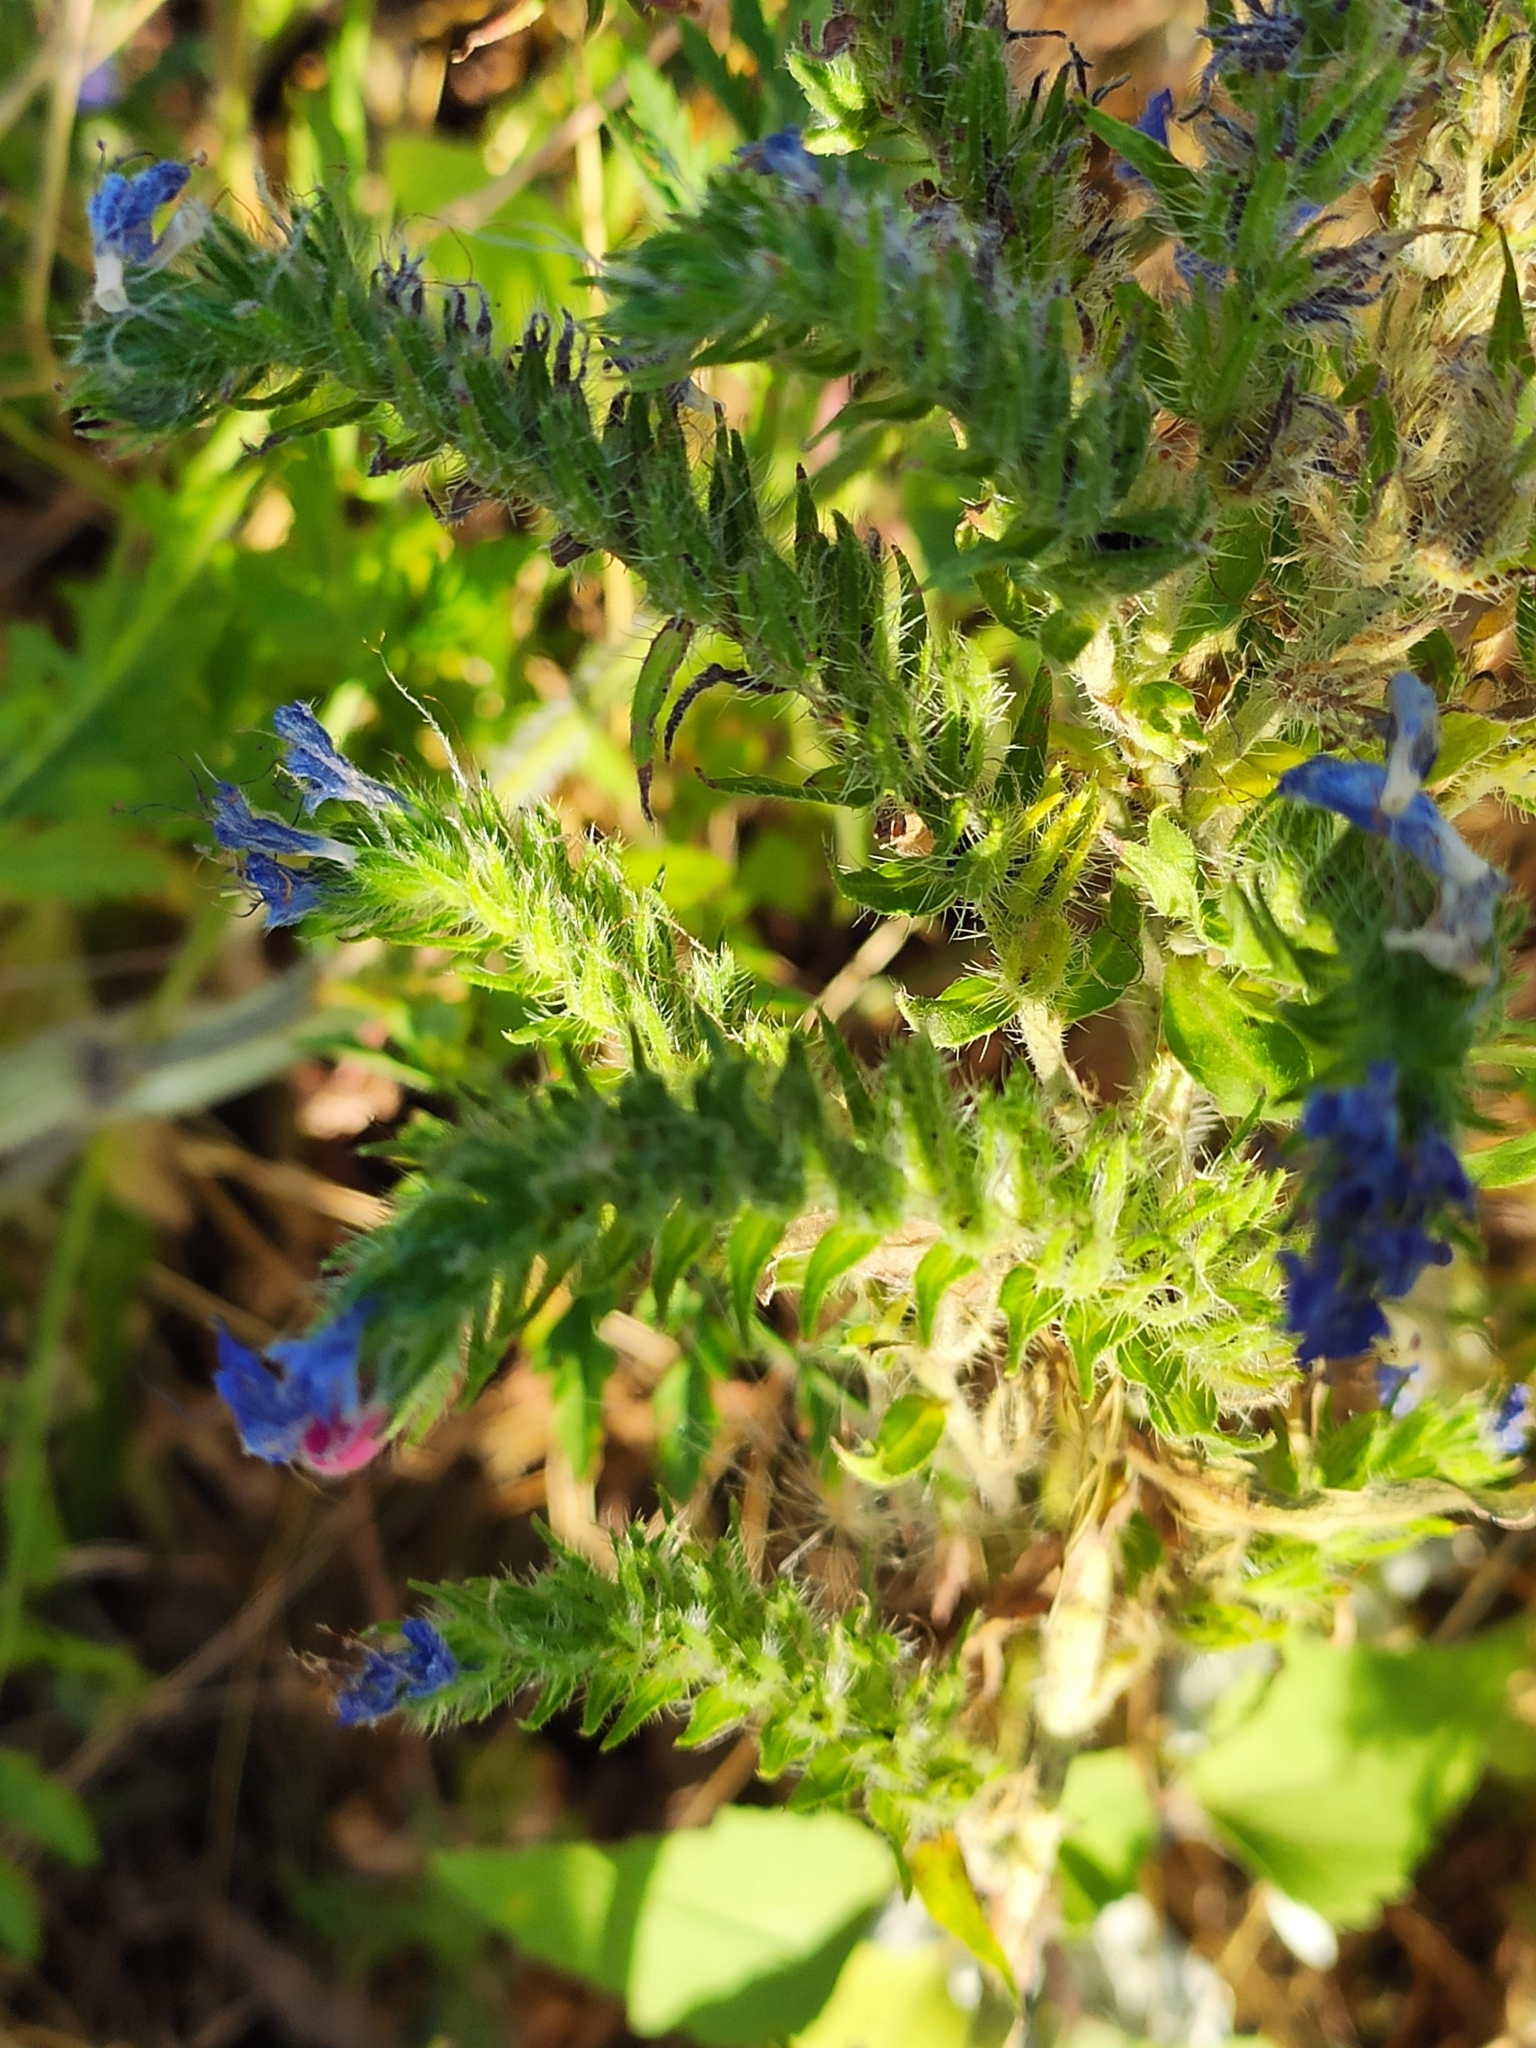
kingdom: Plantae
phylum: Tracheophyta
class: Magnoliopsida
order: Boraginales
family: Boraginaceae
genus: Echium
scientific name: Echium vulgare
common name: Common viper's bugloss
